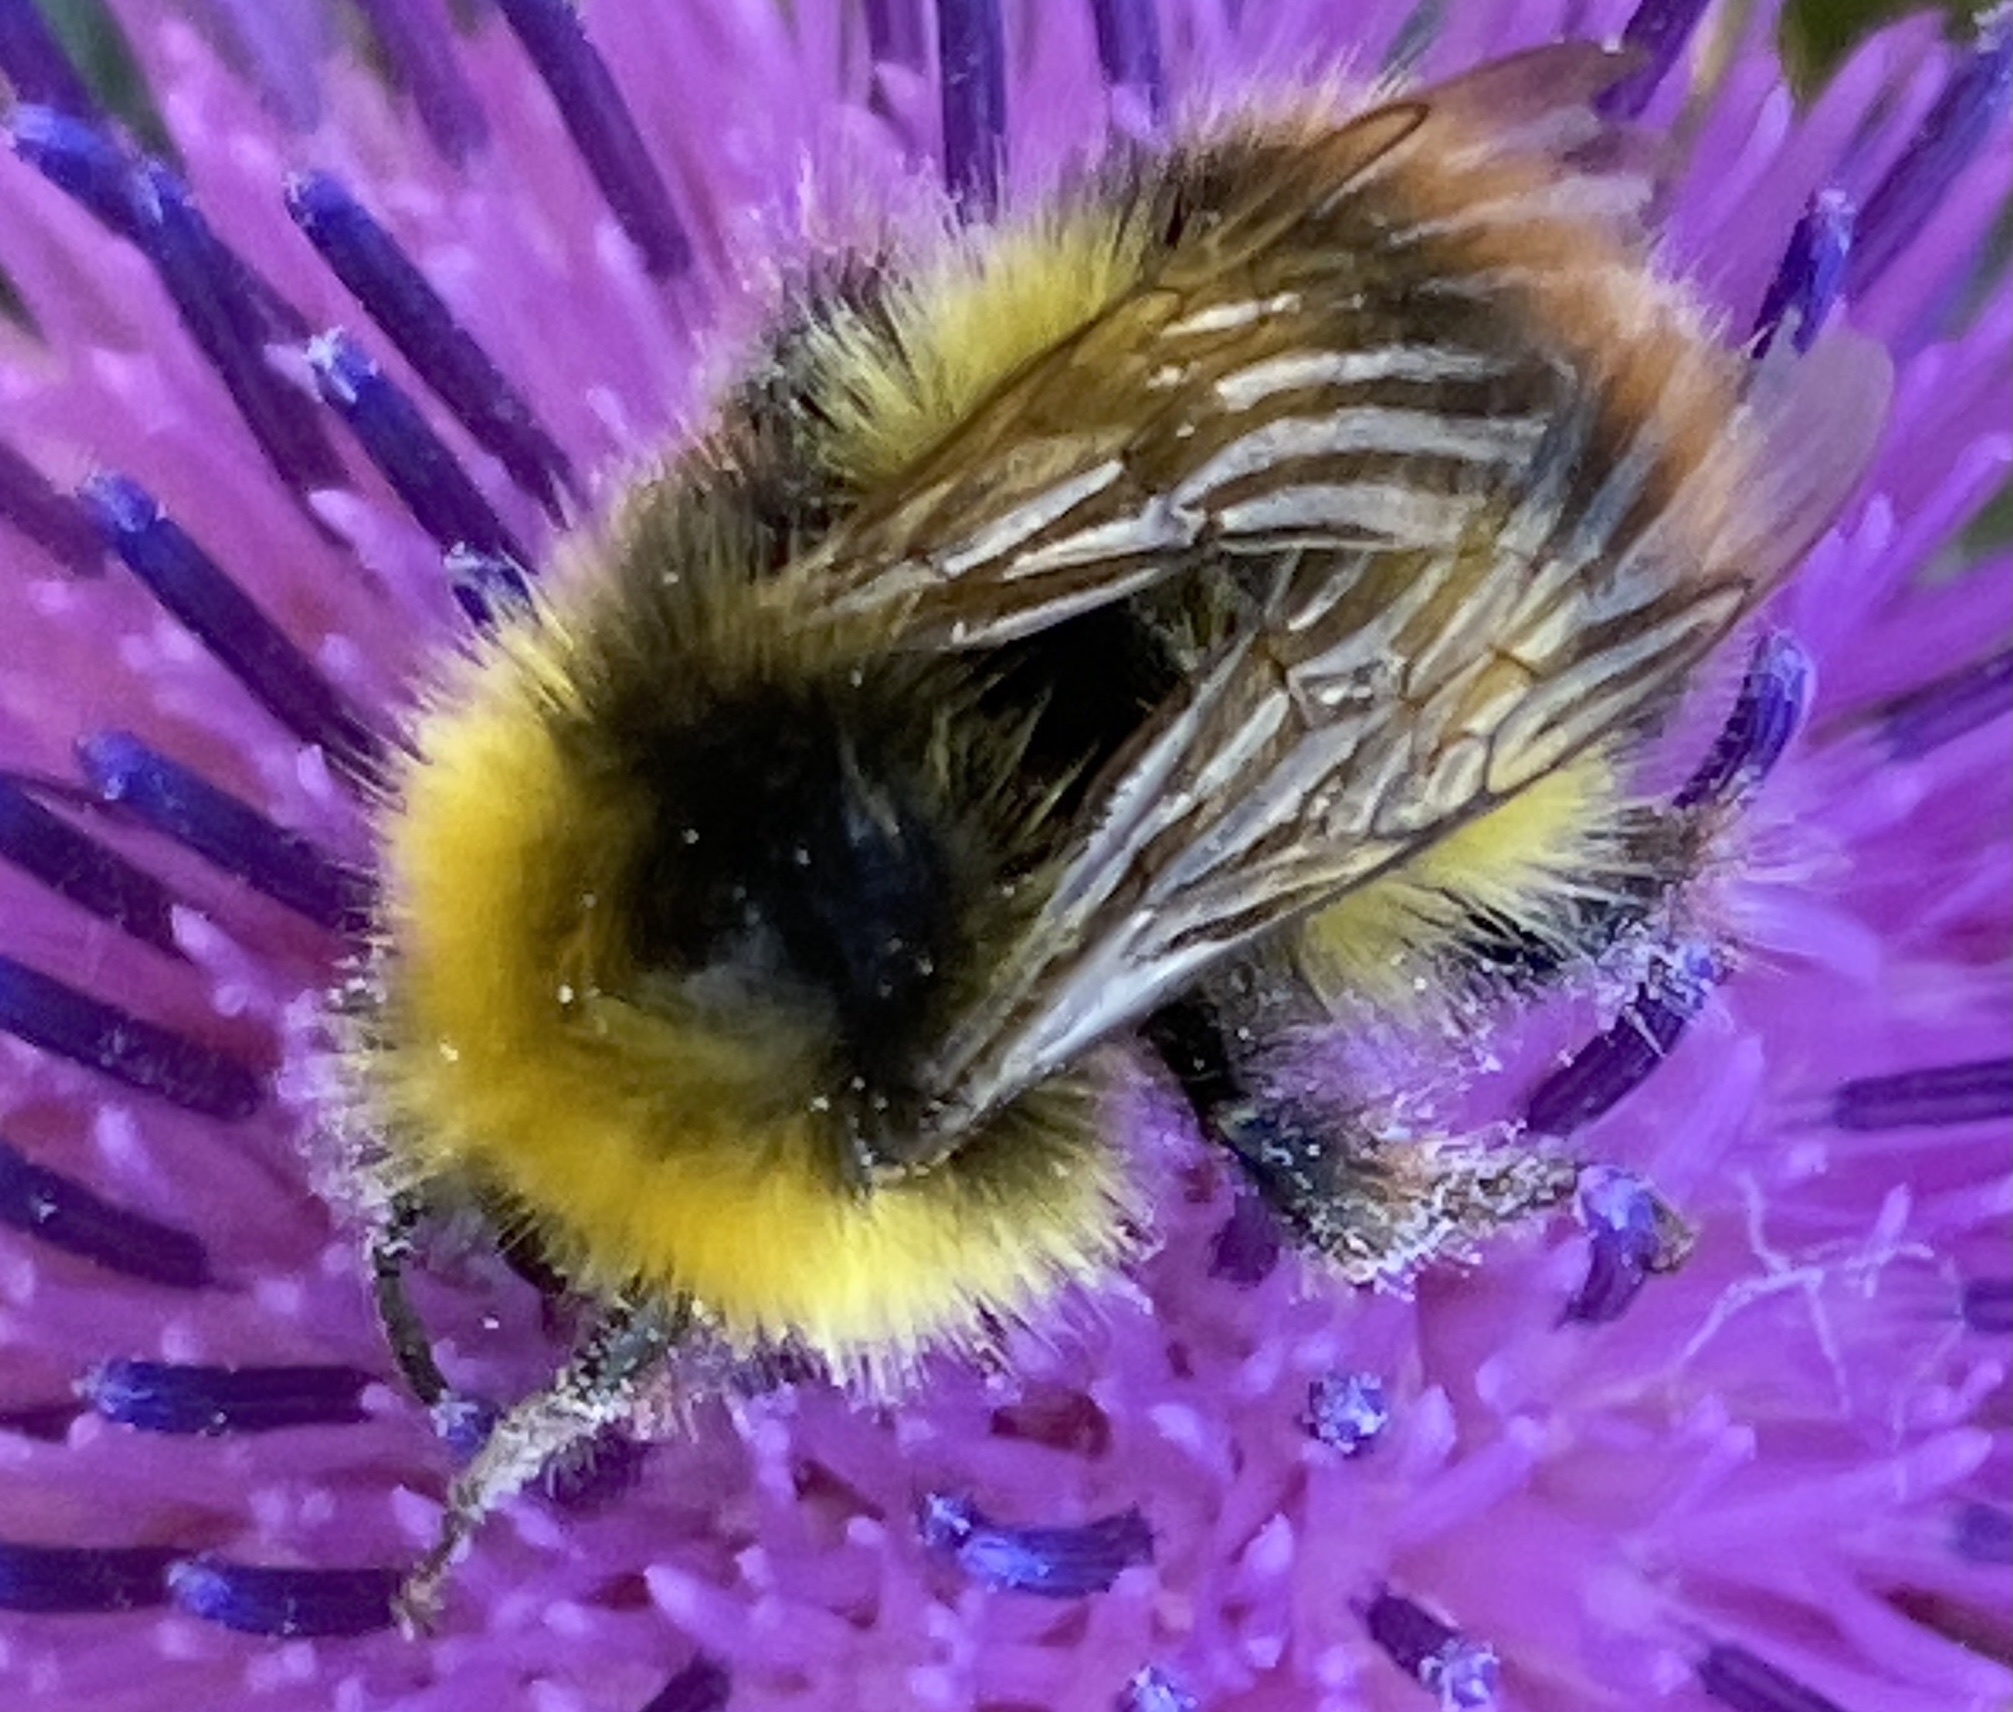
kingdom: Animalia
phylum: Arthropoda
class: Insecta
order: Hymenoptera
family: Apidae
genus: Bombus
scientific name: Bombus pratorum
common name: Early humble-bee
